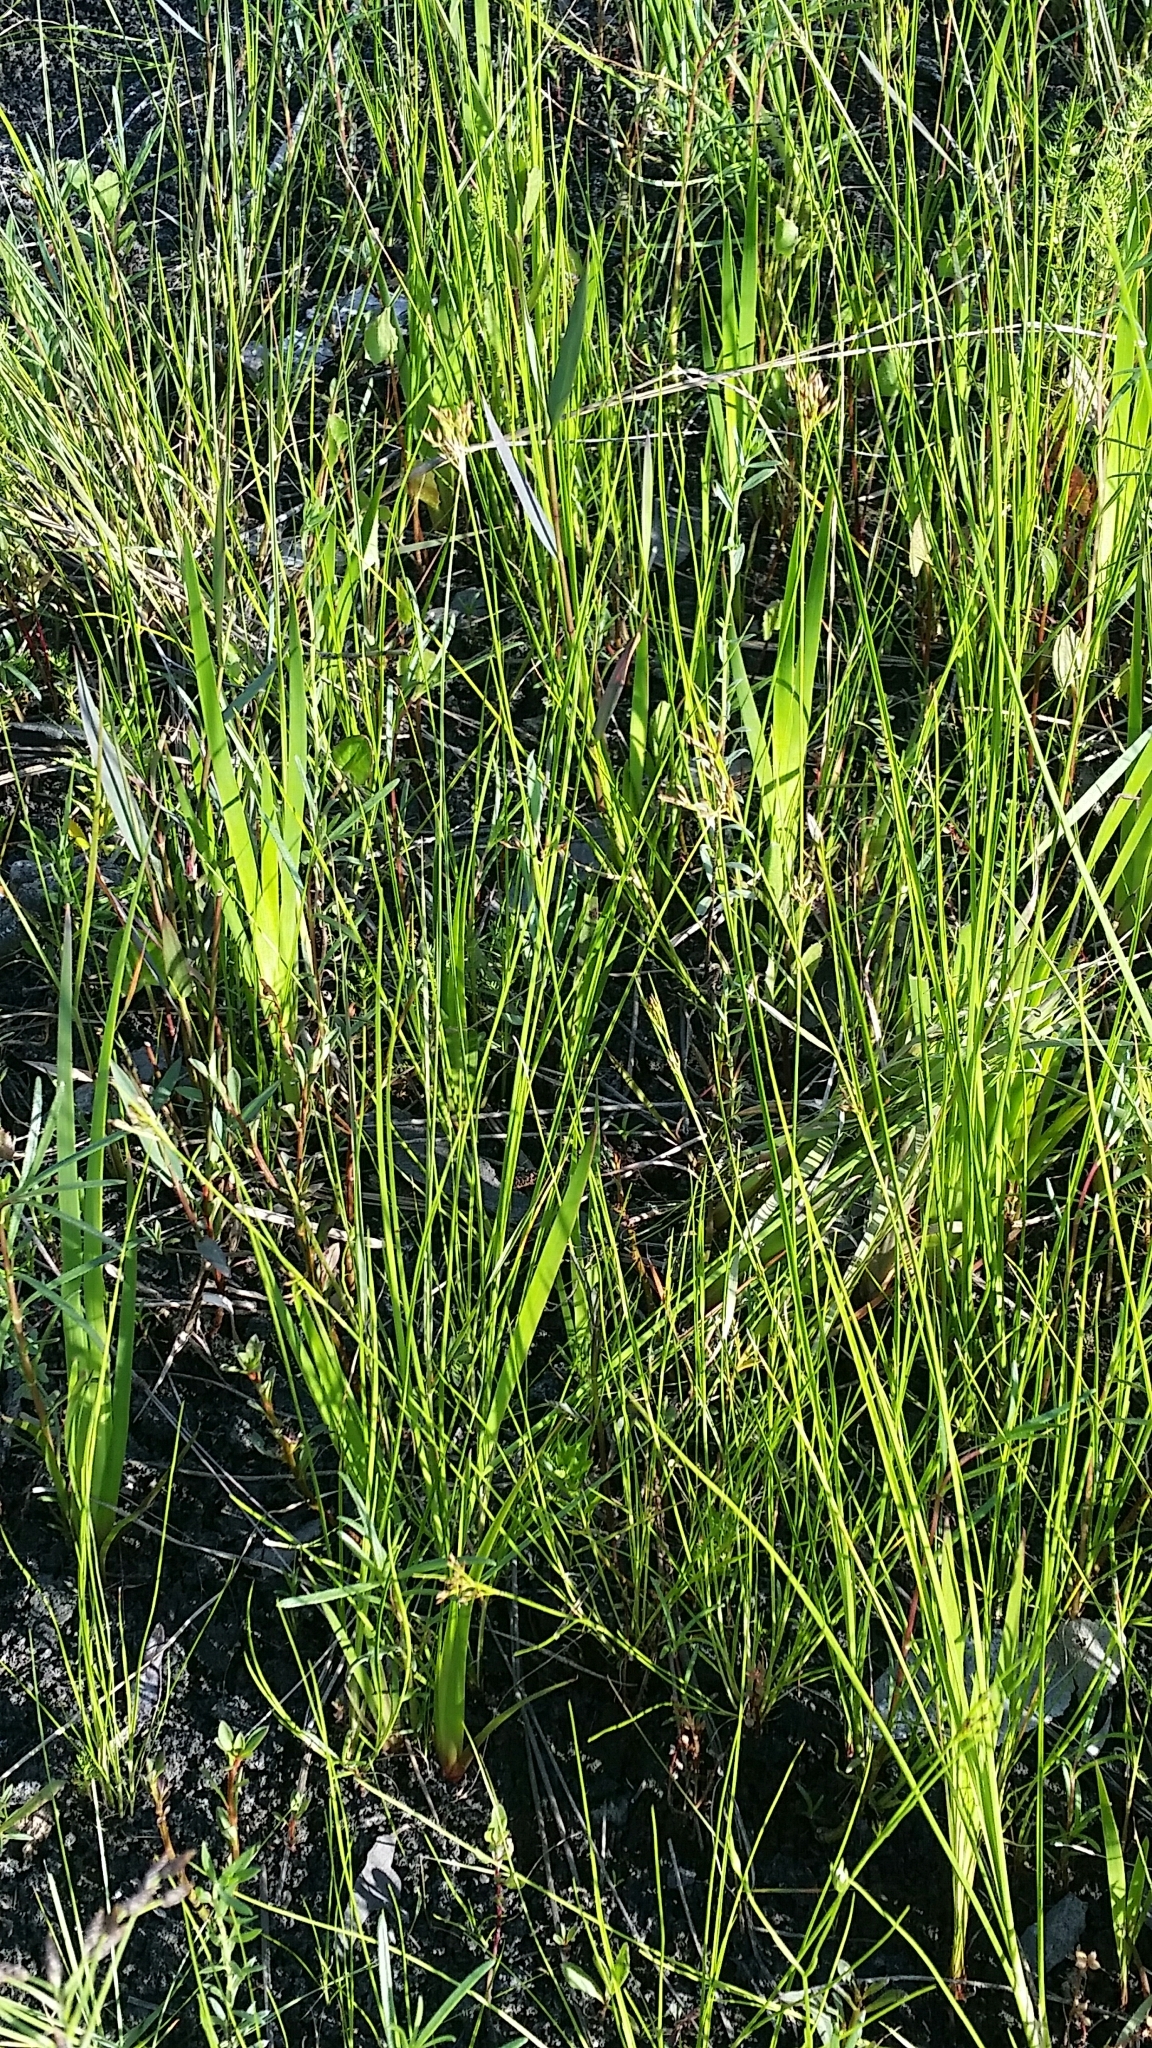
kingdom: Plantae
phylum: Tracheophyta
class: Liliopsida
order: Poales
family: Cyperaceae
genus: Rhynchospora
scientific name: Rhynchospora divergens
